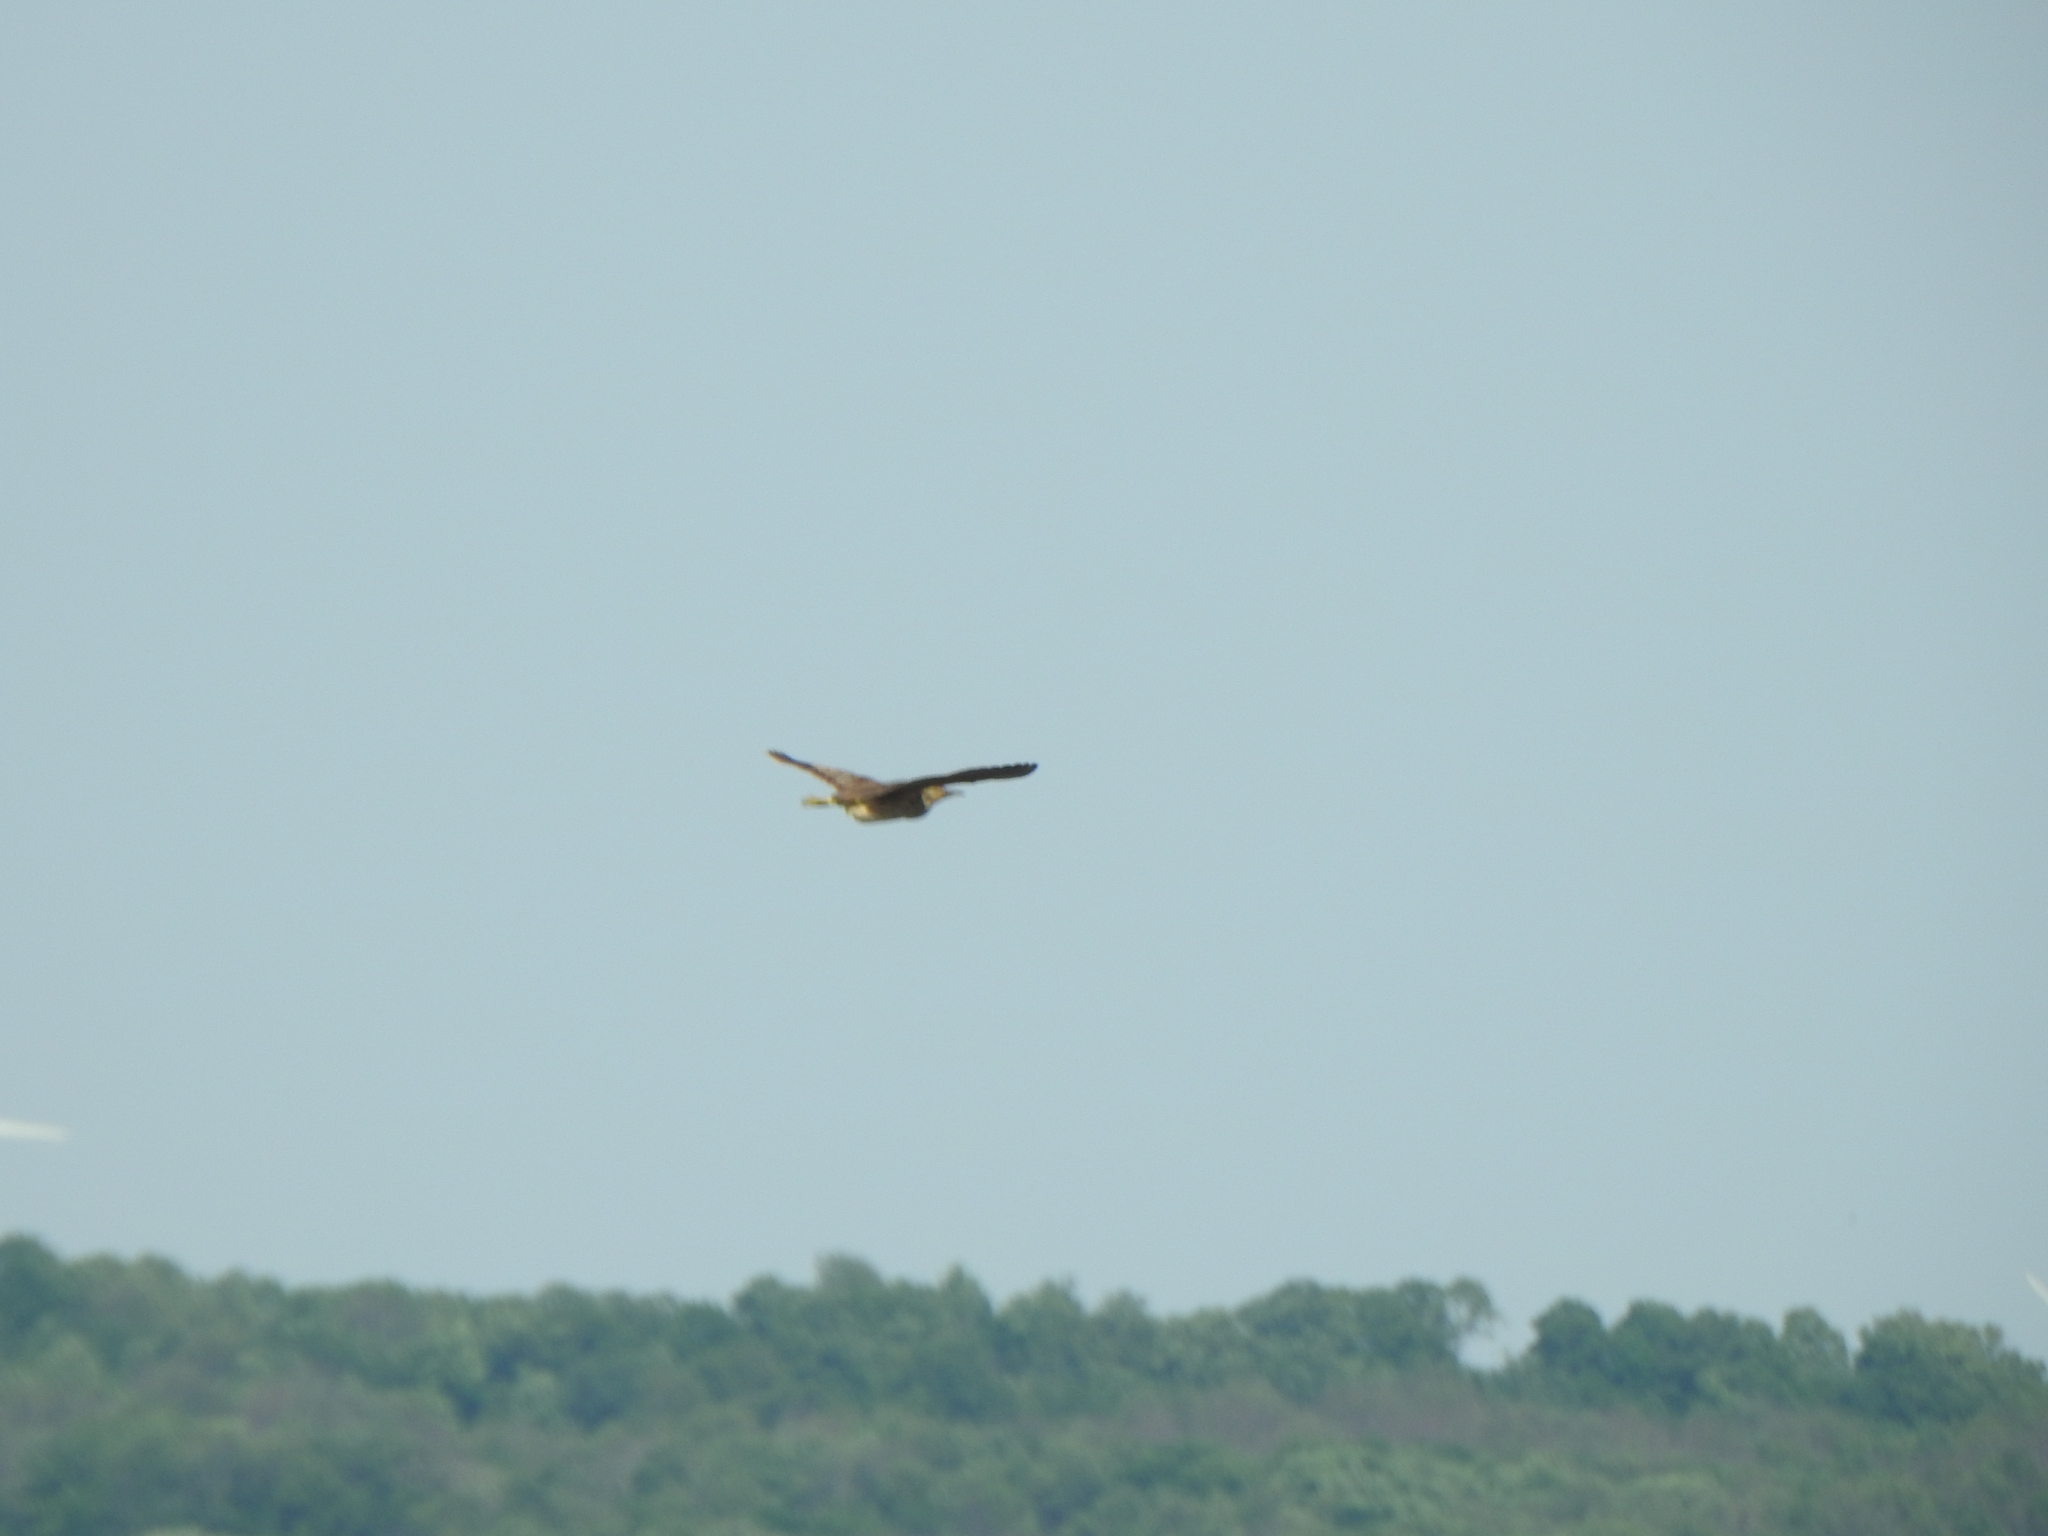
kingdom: Animalia
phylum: Chordata
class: Aves
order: Pelecaniformes
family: Ardeidae
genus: Botaurus
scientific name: Botaurus lentiginosus
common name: American bittern
